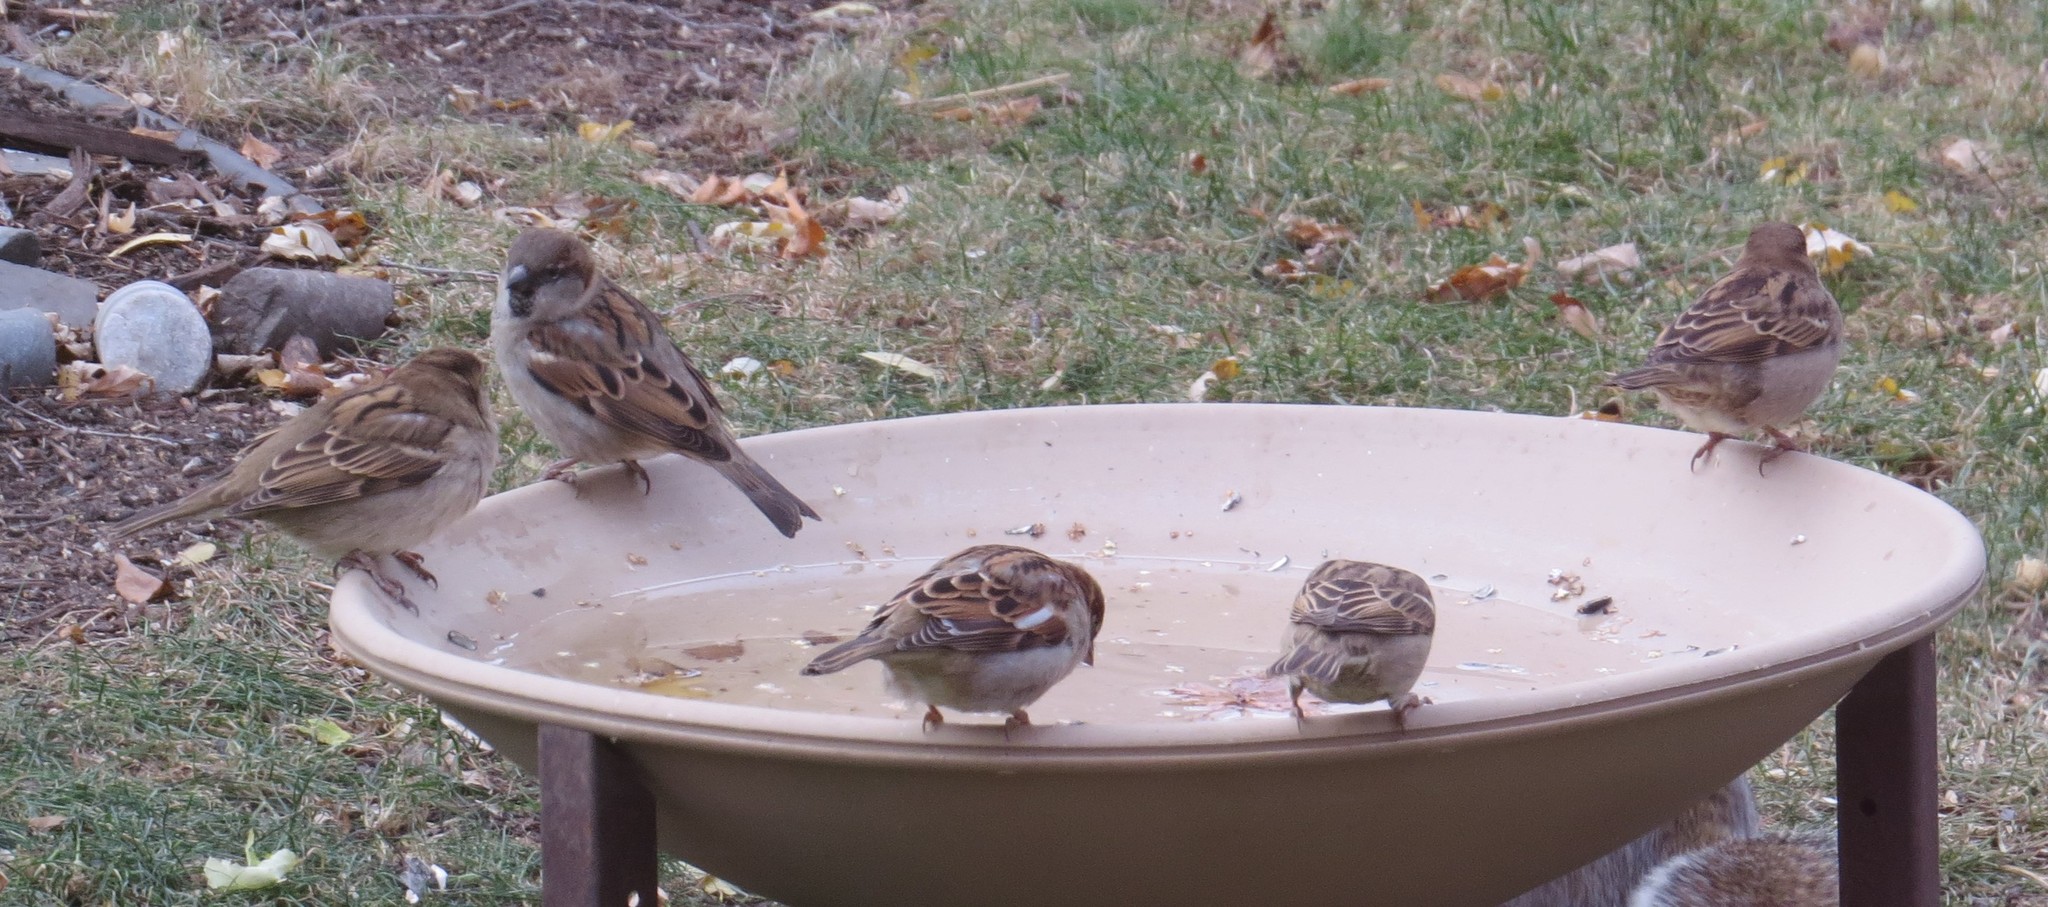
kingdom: Animalia
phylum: Chordata
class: Aves
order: Passeriformes
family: Passeridae
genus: Passer
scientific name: Passer domesticus
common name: House sparrow
